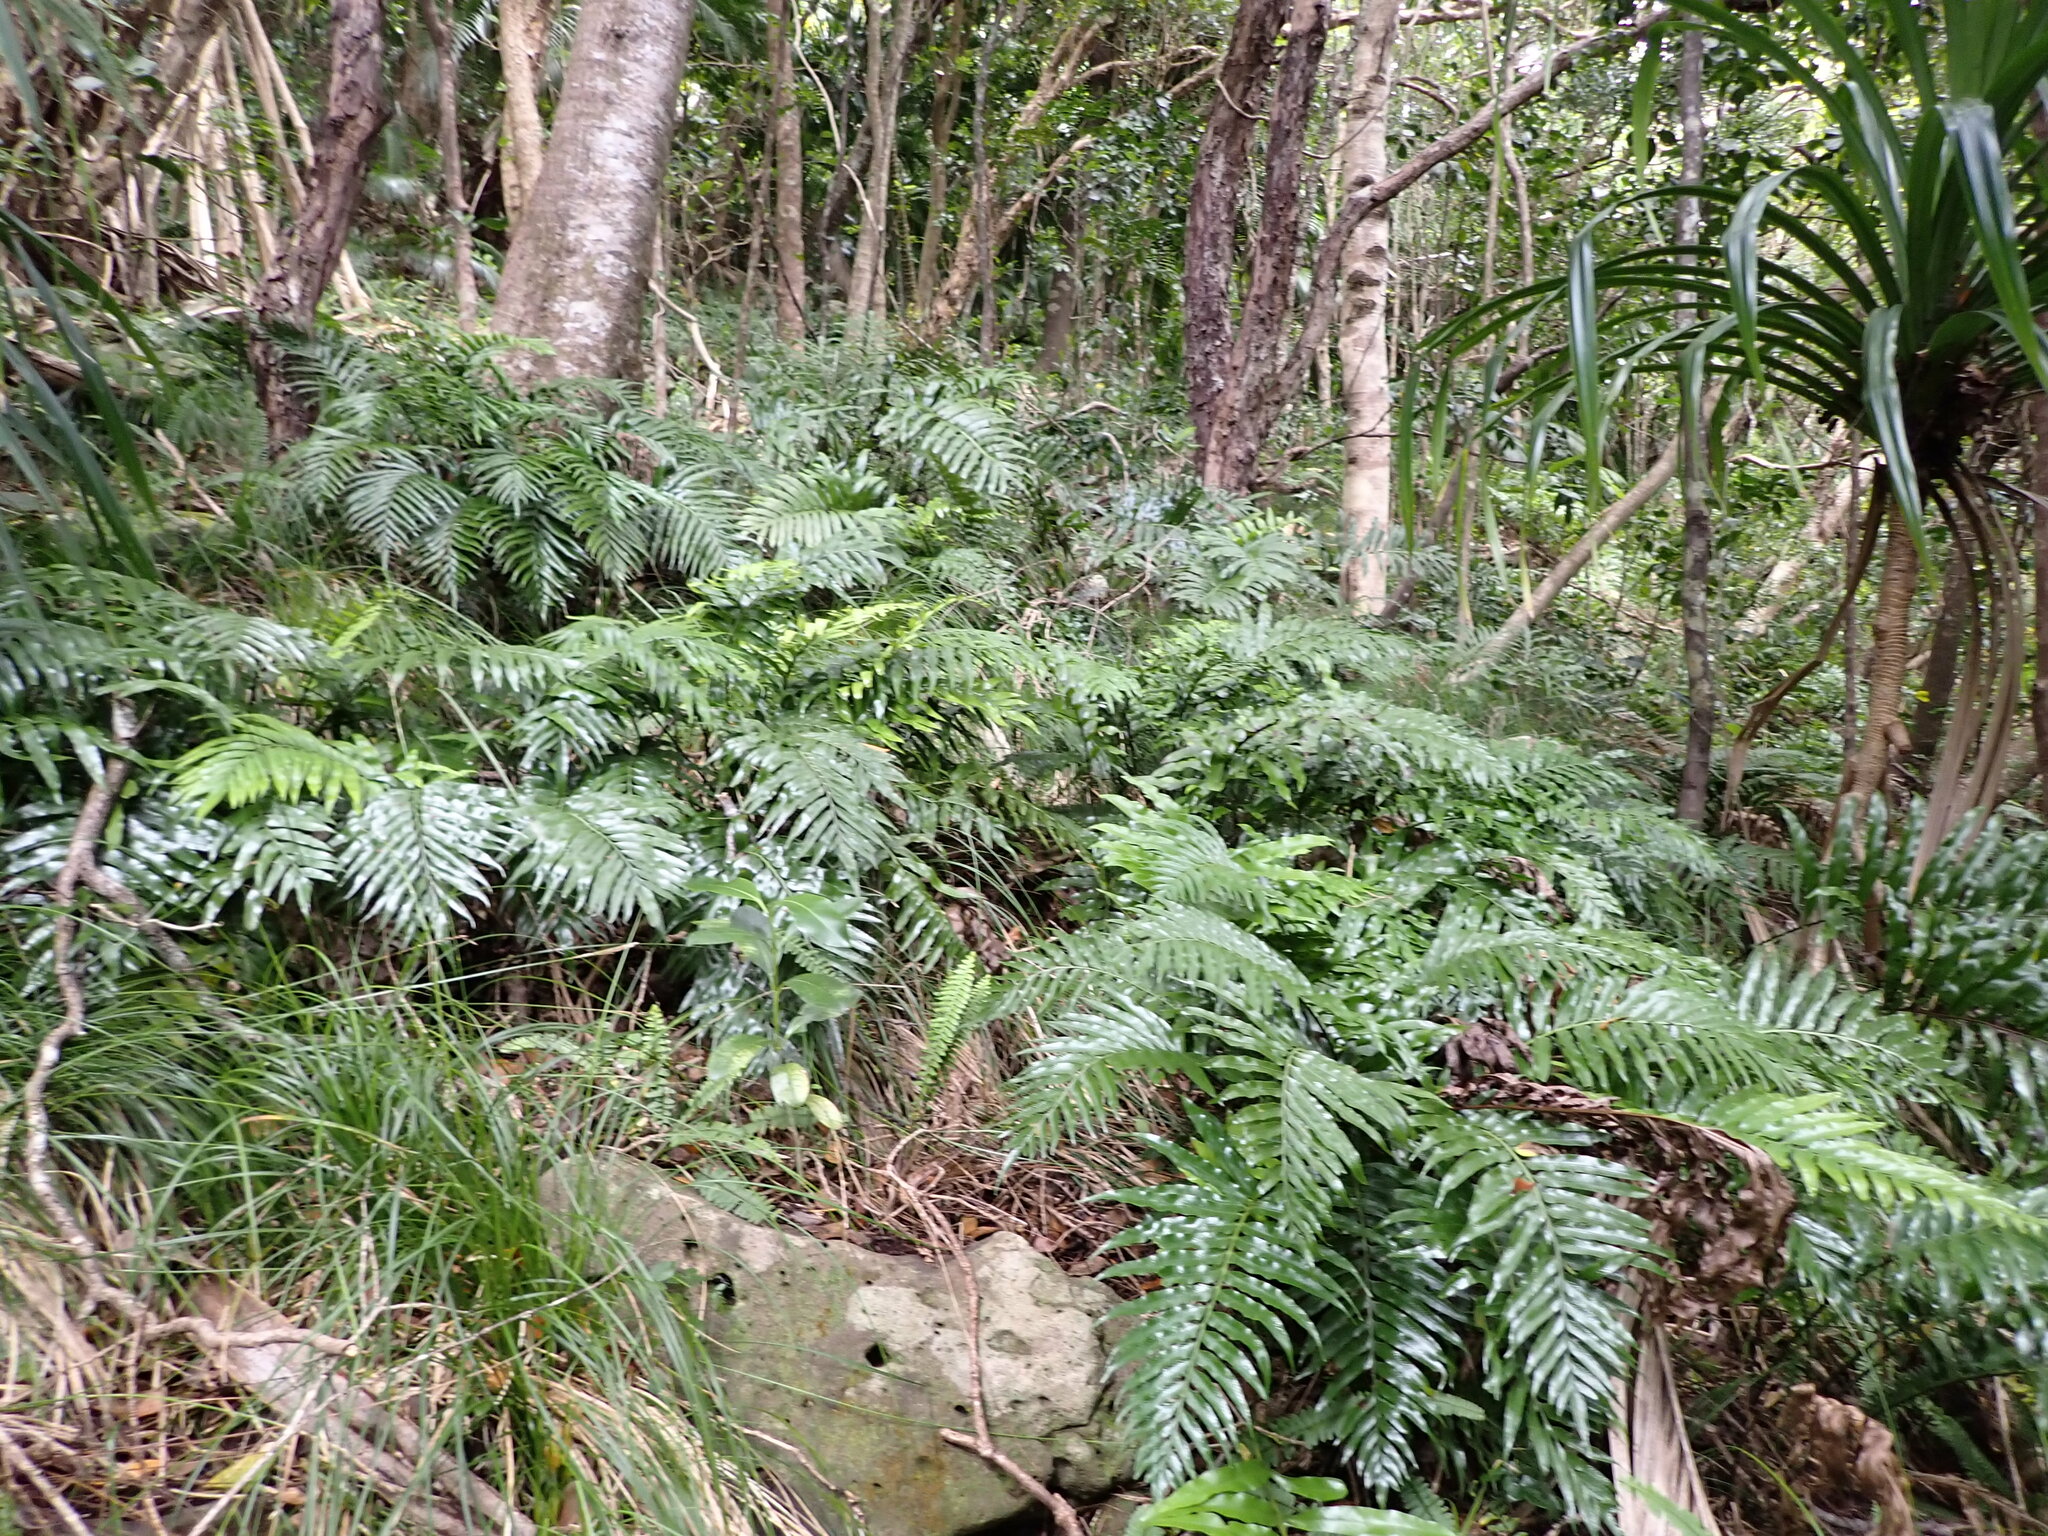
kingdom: Plantae
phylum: Tracheophyta
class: Polypodiopsida
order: Polypodiales
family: Aspleniaceae
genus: Asplenium
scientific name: Asplenium milnei
